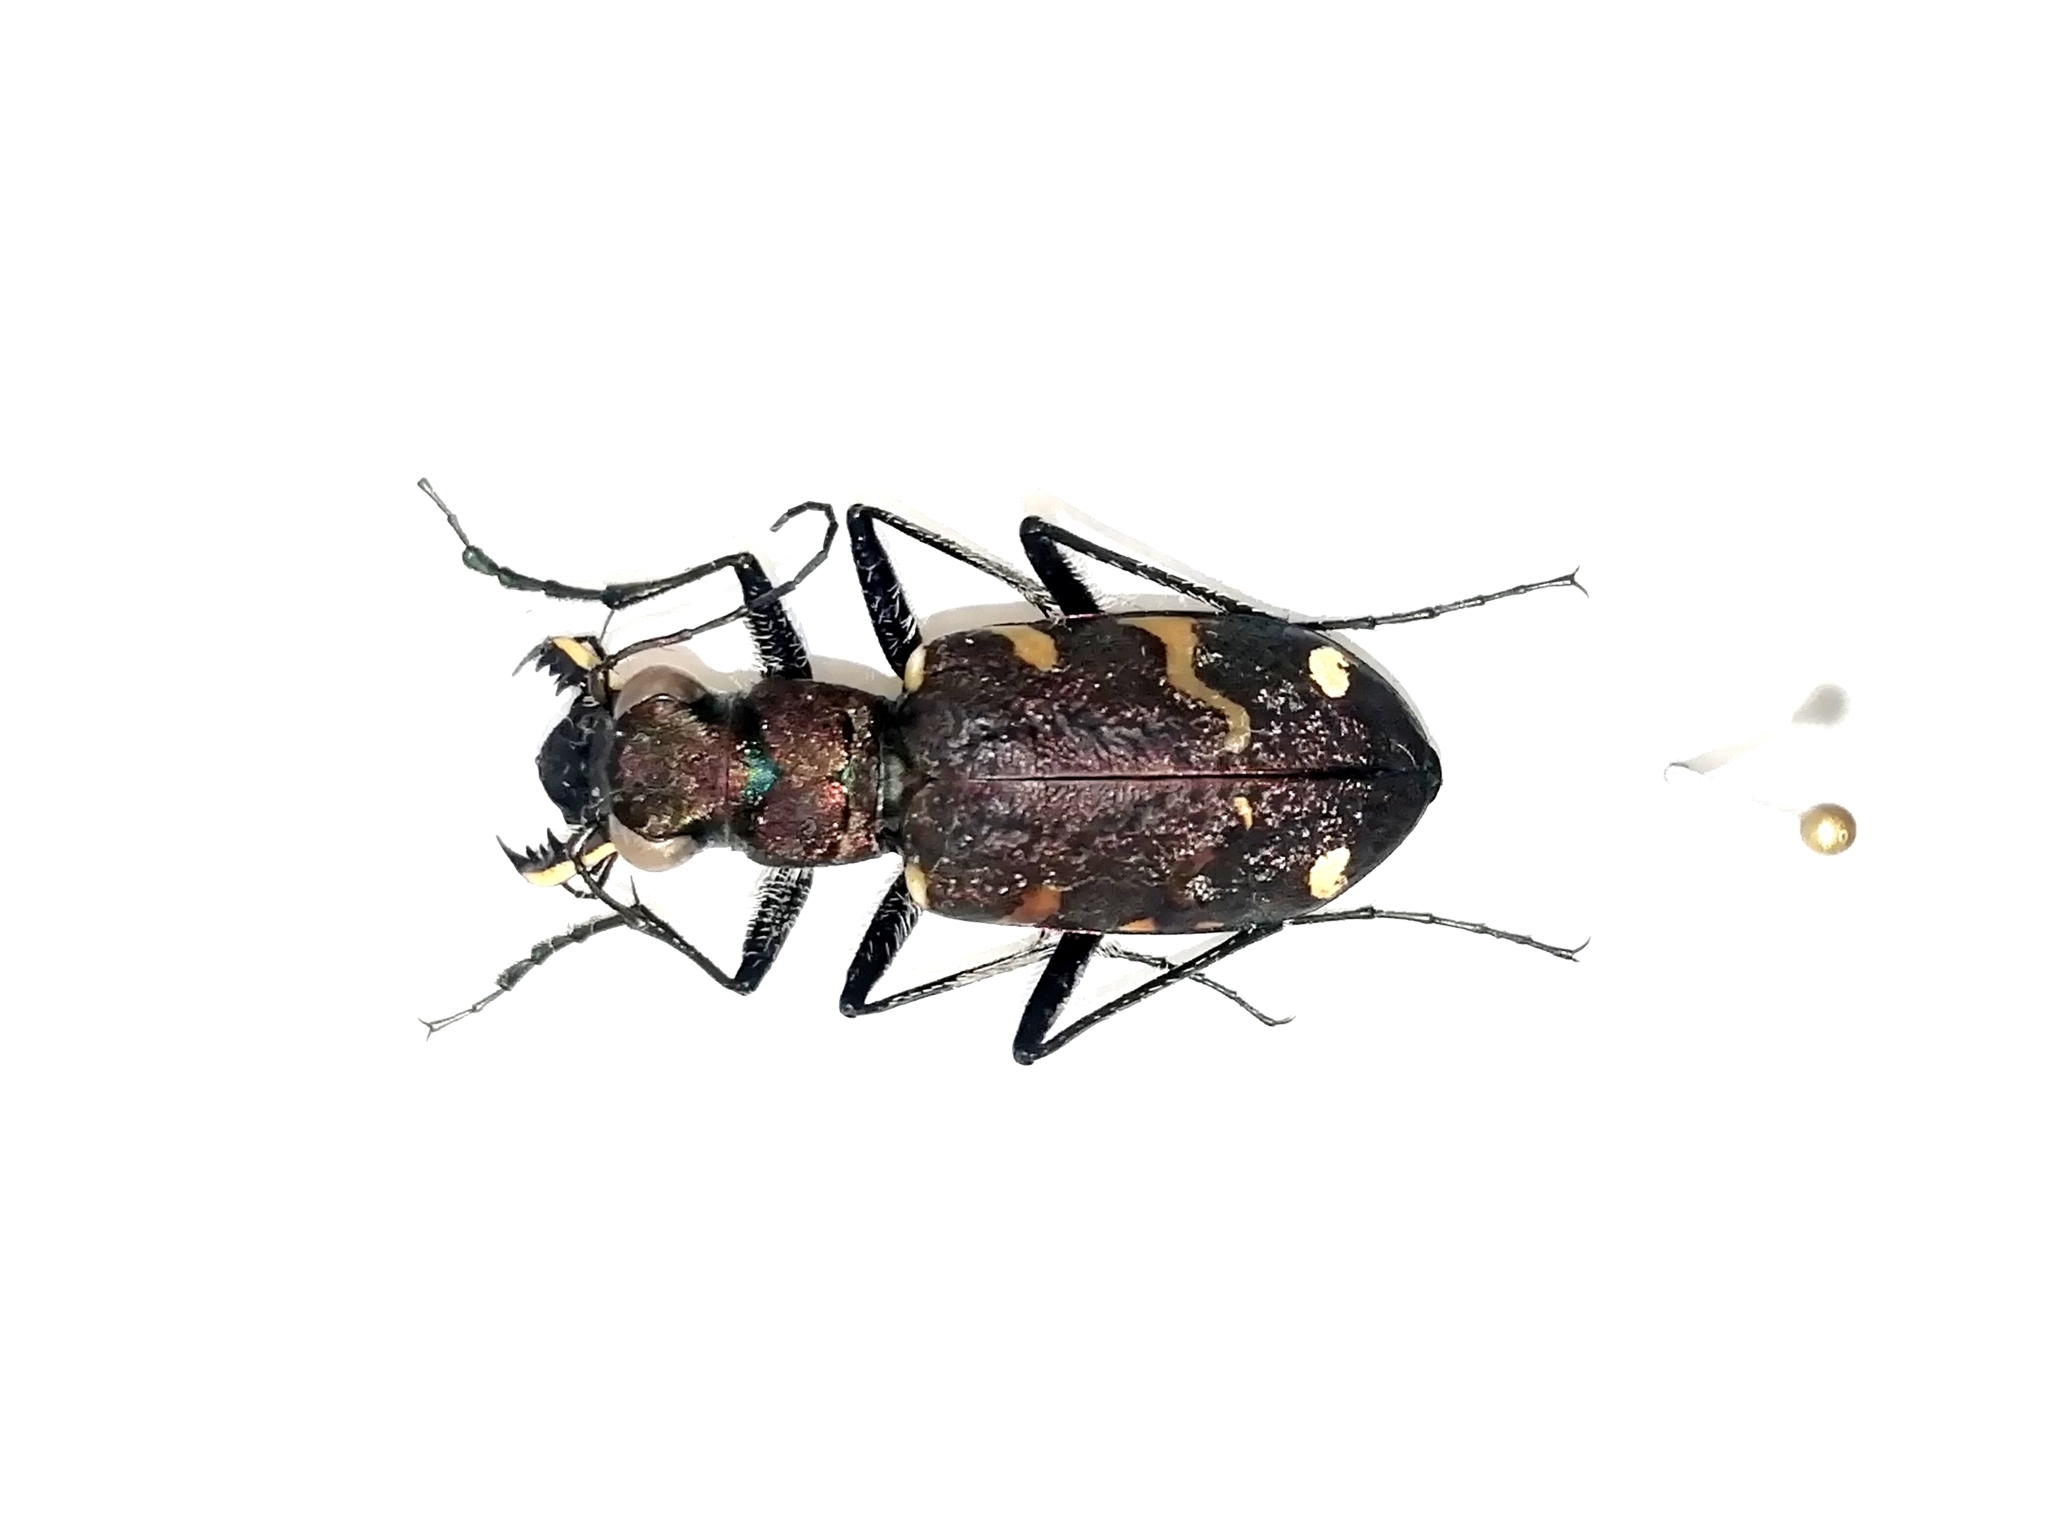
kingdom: Animalia
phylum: Arthropoda
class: Insecta
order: Coleoptera
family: Carabidae
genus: Cicindela
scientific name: Cicindela sylvatica
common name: Heath tiger beetle
